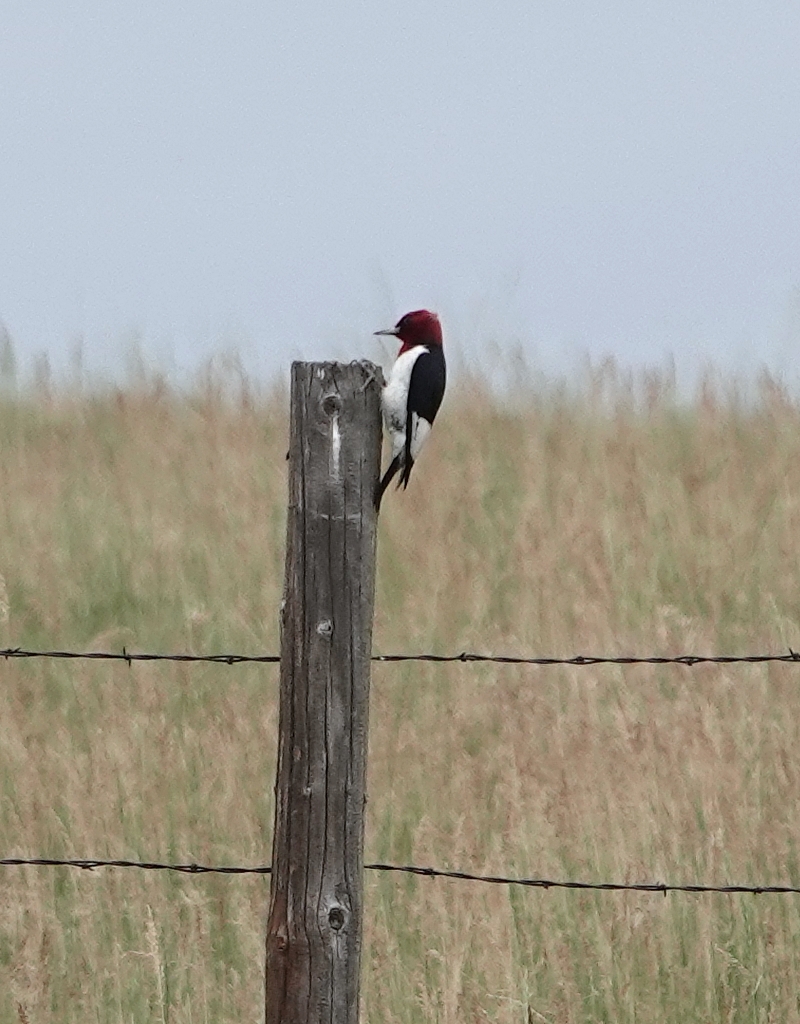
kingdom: Animalia
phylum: Chordata
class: Aves
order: Piciformes
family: Picidae
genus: Melanerpes
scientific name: Melanerpes erythrocephalus
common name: Red-headed woodpecker
